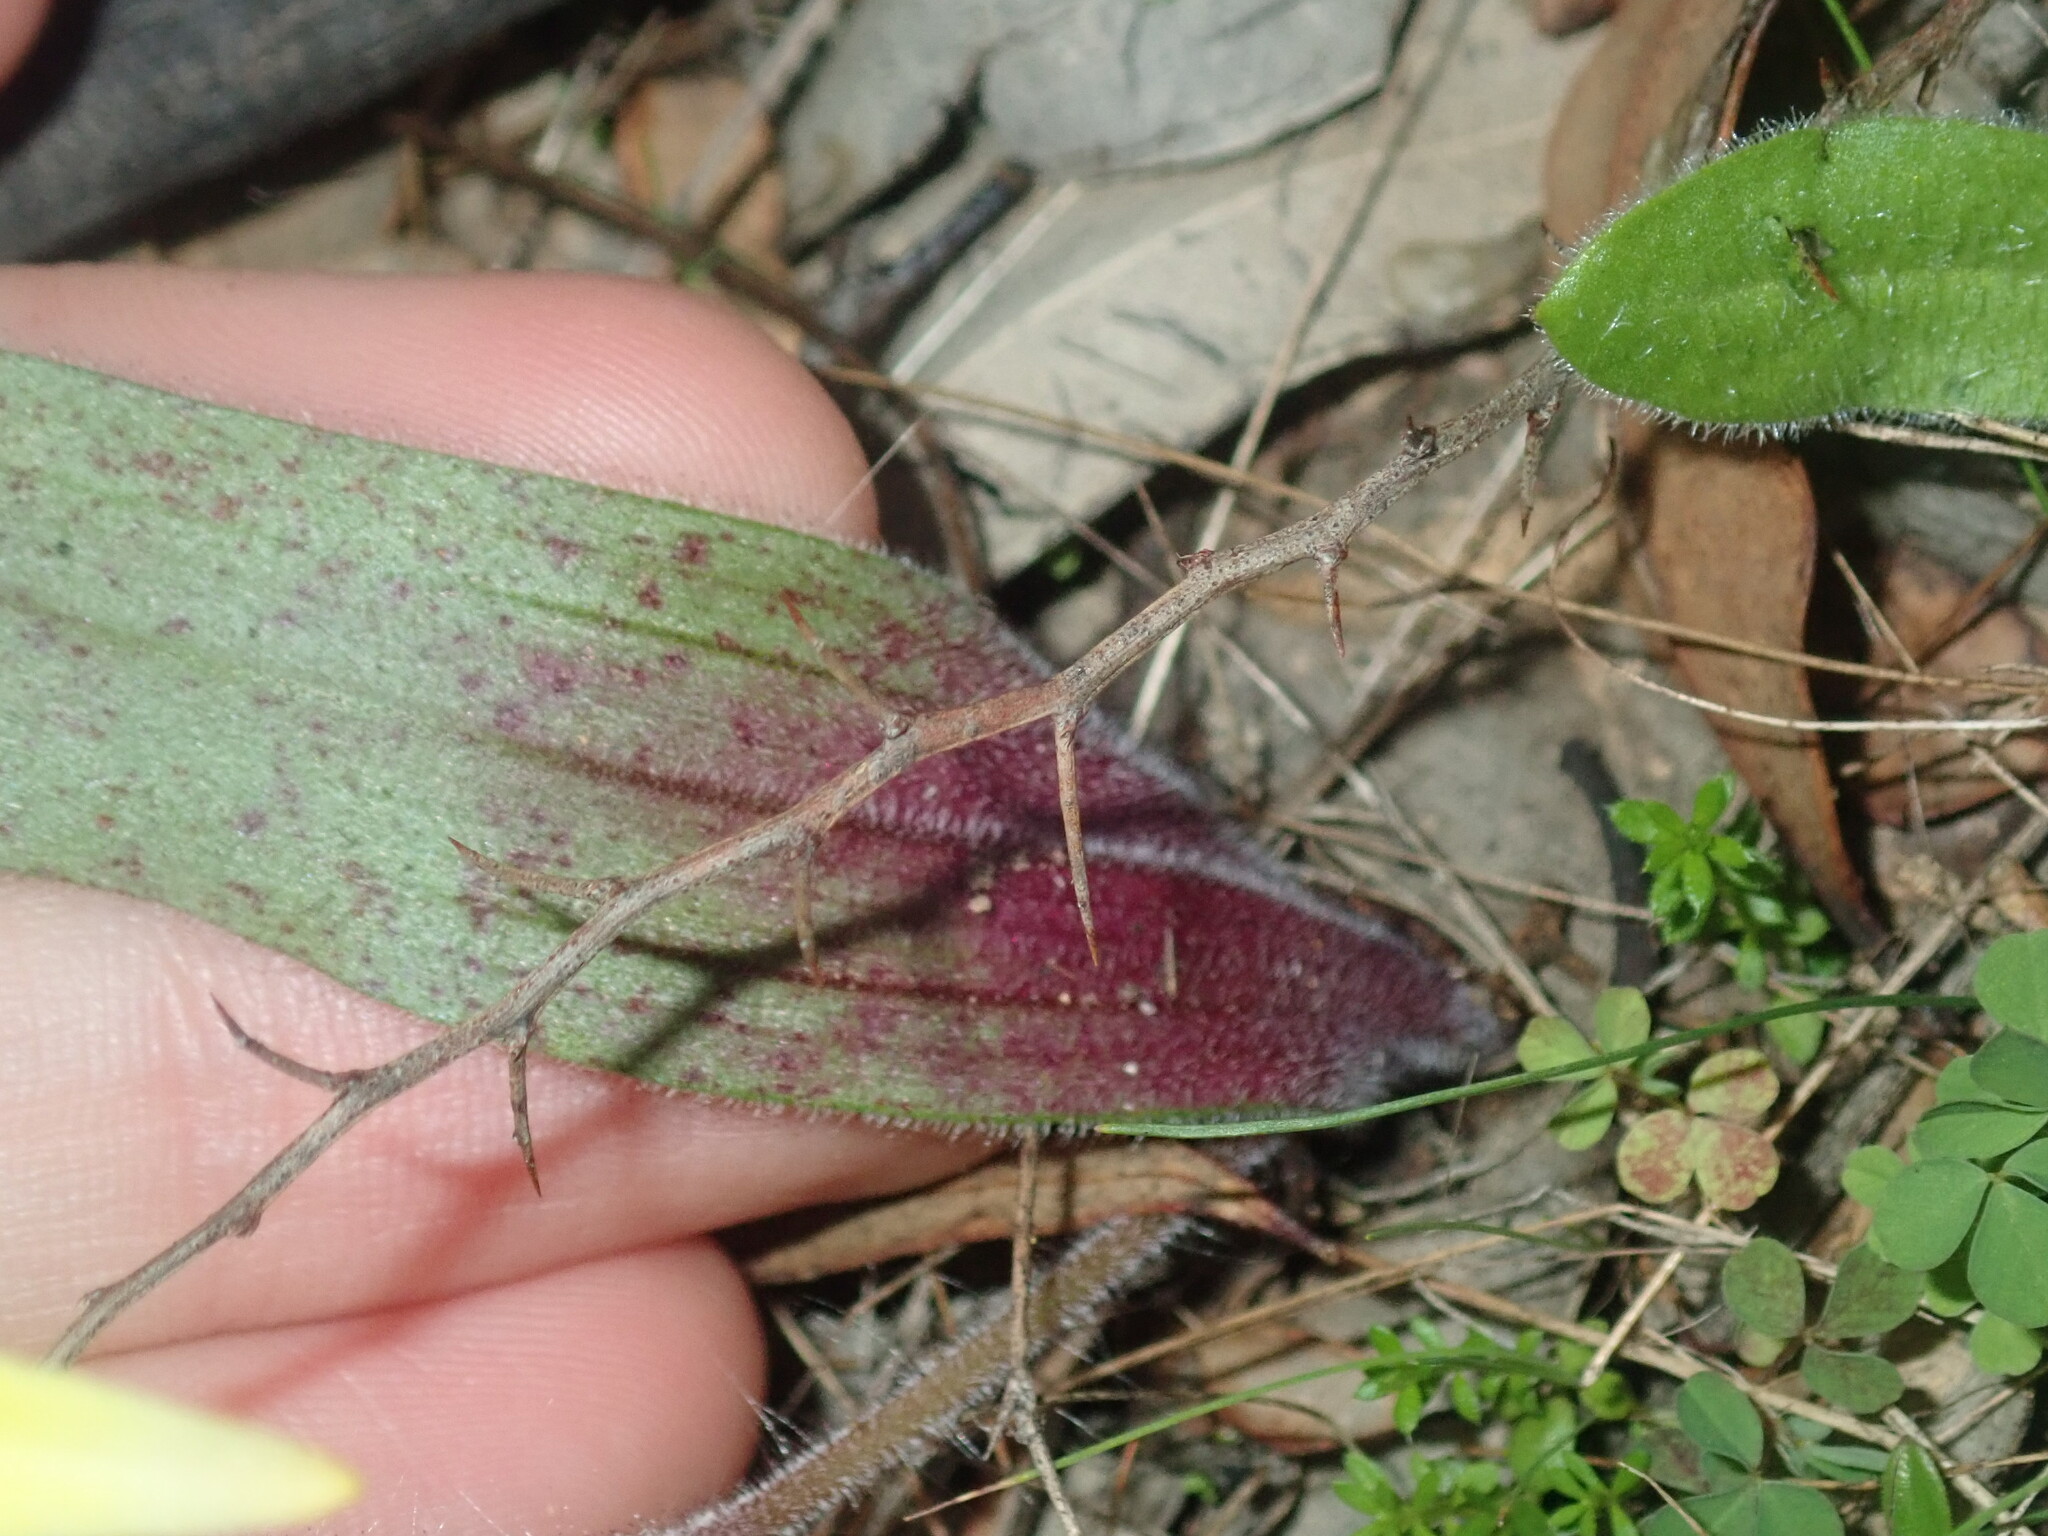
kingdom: Plantae
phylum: Tracheophyta
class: Liliopsida
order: Asparagales
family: Orchidaceae
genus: Caladenia
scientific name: Caladenia flava
